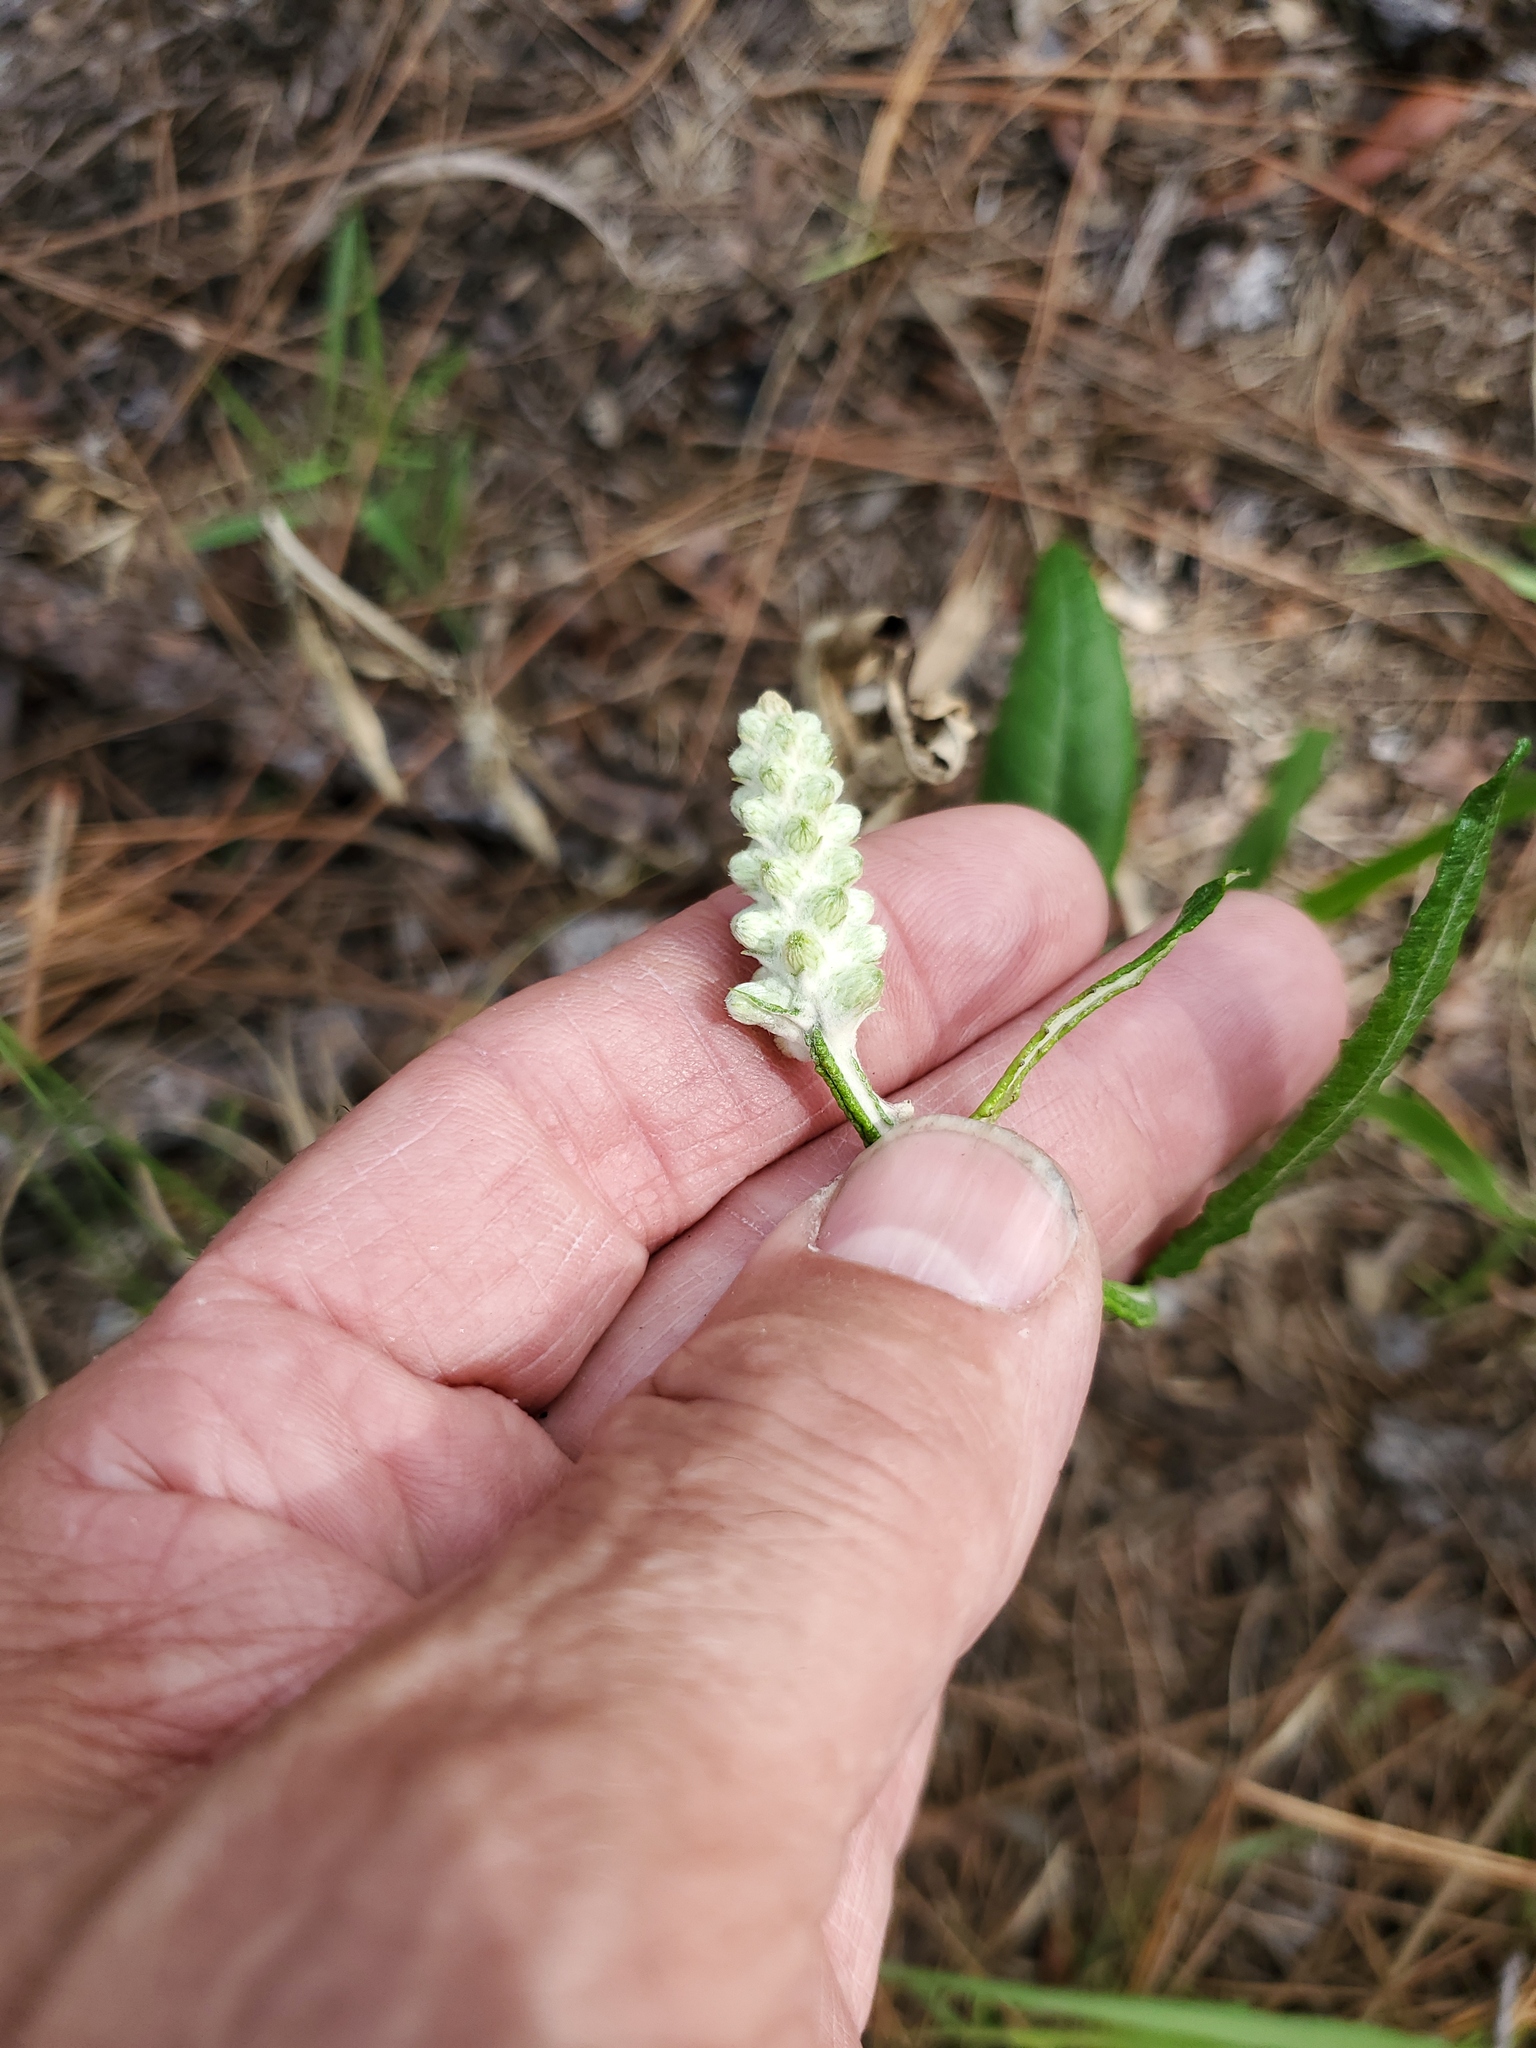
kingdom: Plantae
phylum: Tracheophyta
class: Magnoliopsida
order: Asterales
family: Asteraceae
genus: Pterocaulon
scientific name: Pterocaulon pycnostachyum
